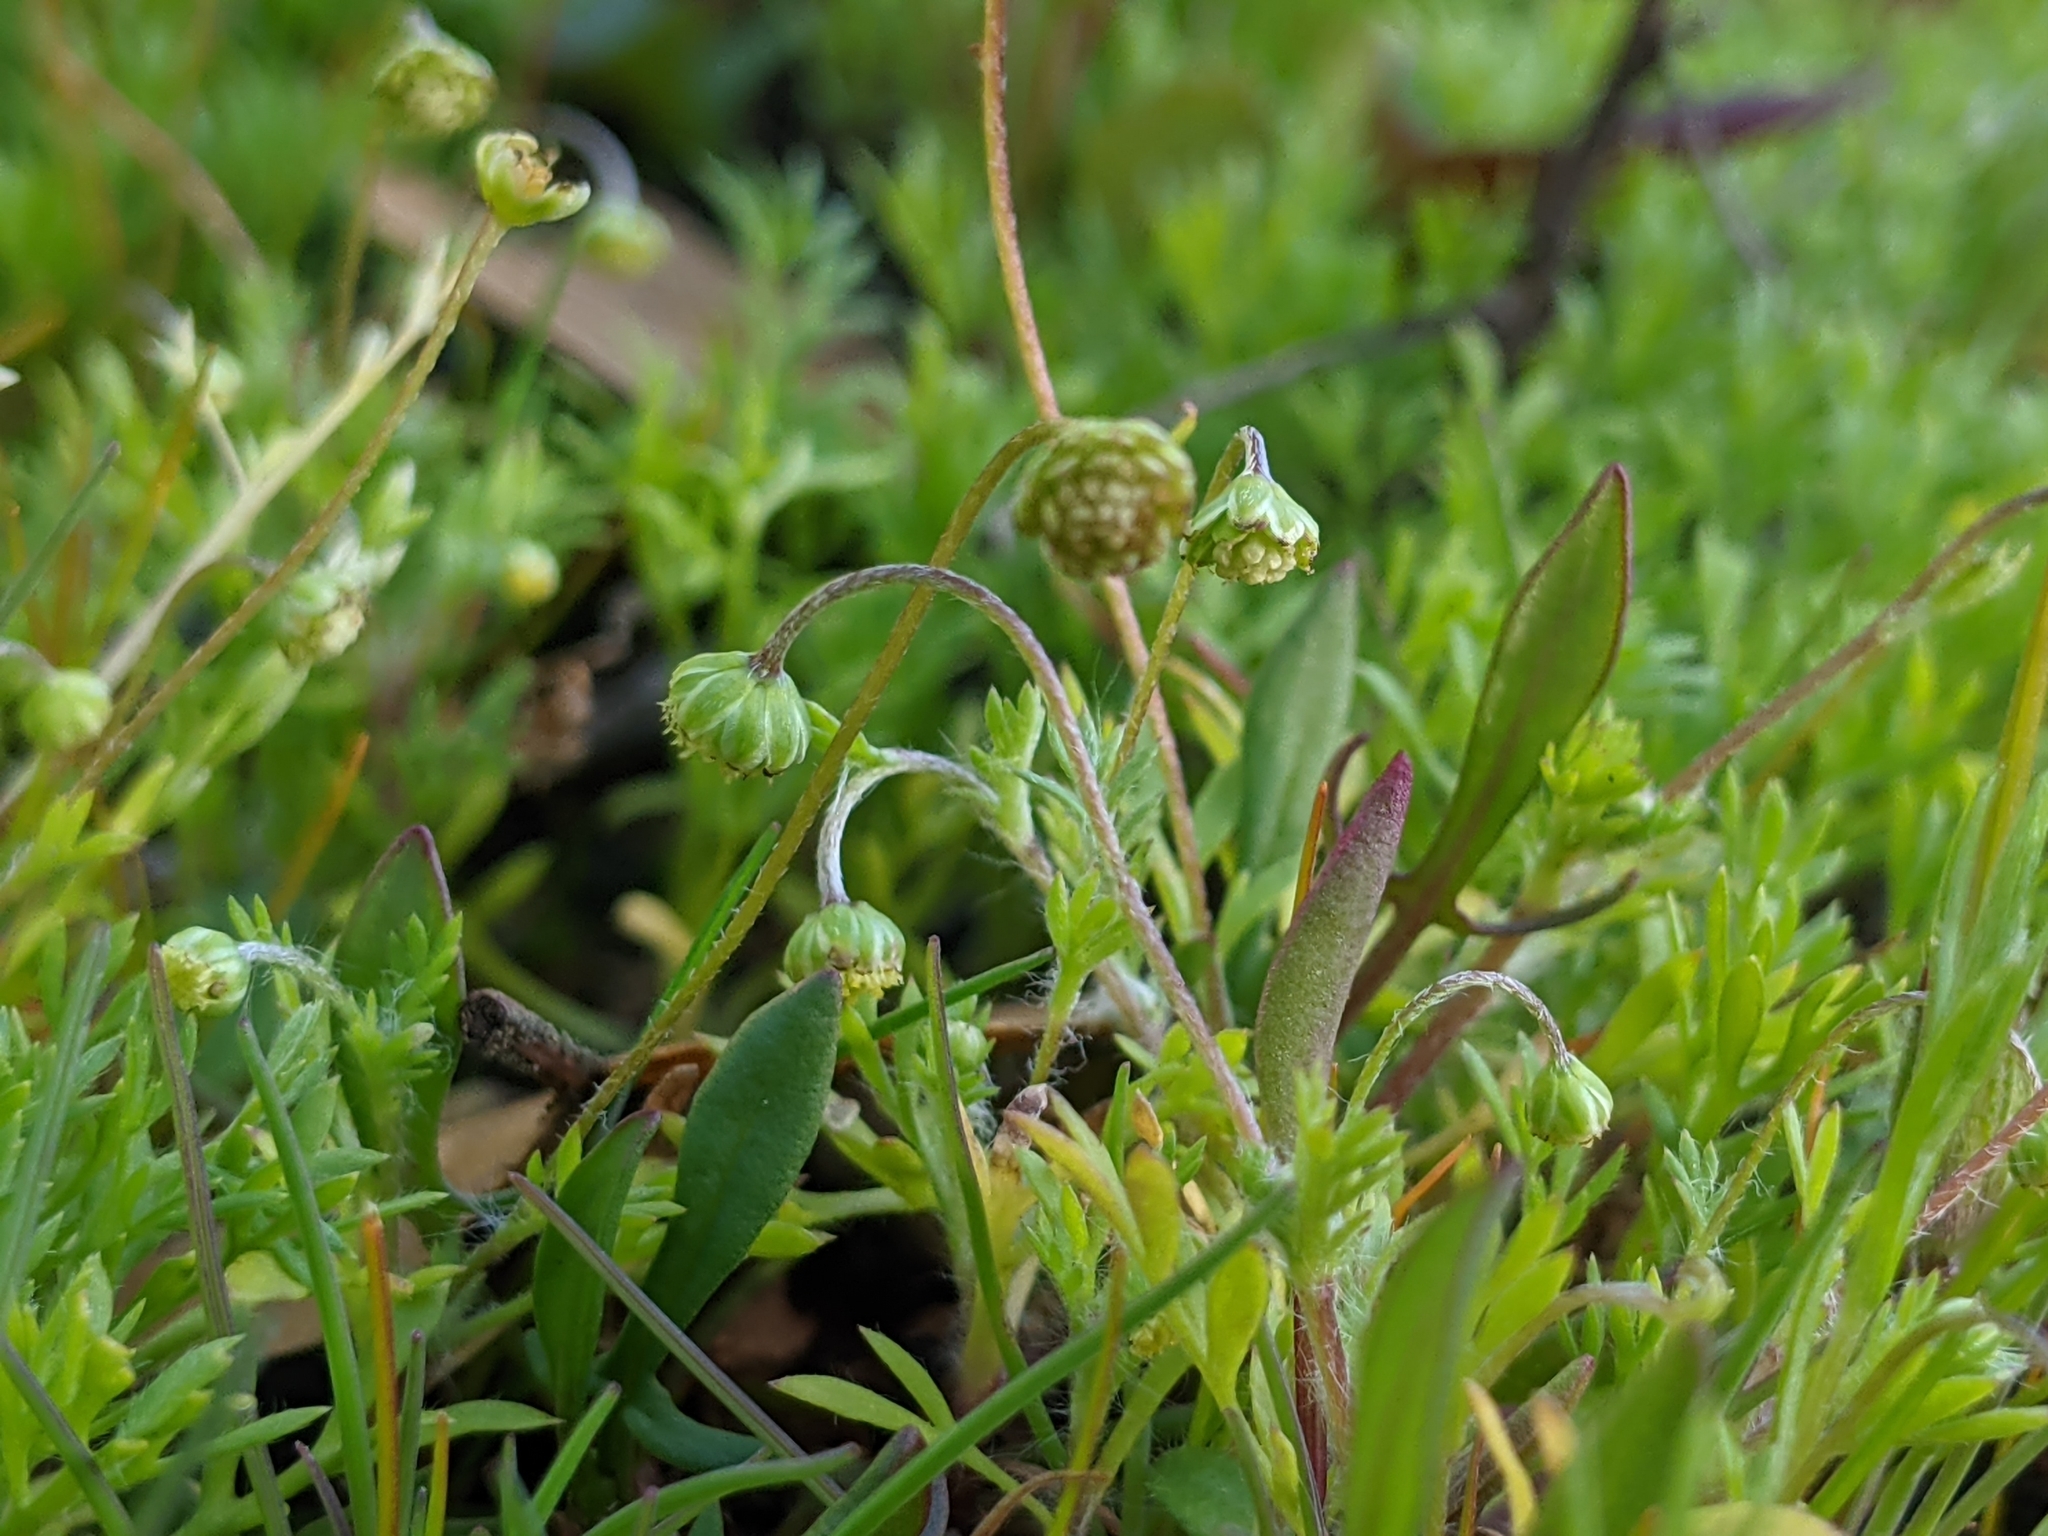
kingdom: Plantae
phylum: Tracheophyta
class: Magnoliopsida
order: Asterales
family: Asteraceae
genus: Cotula
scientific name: Cotula australis
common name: Australian waterbuttons
